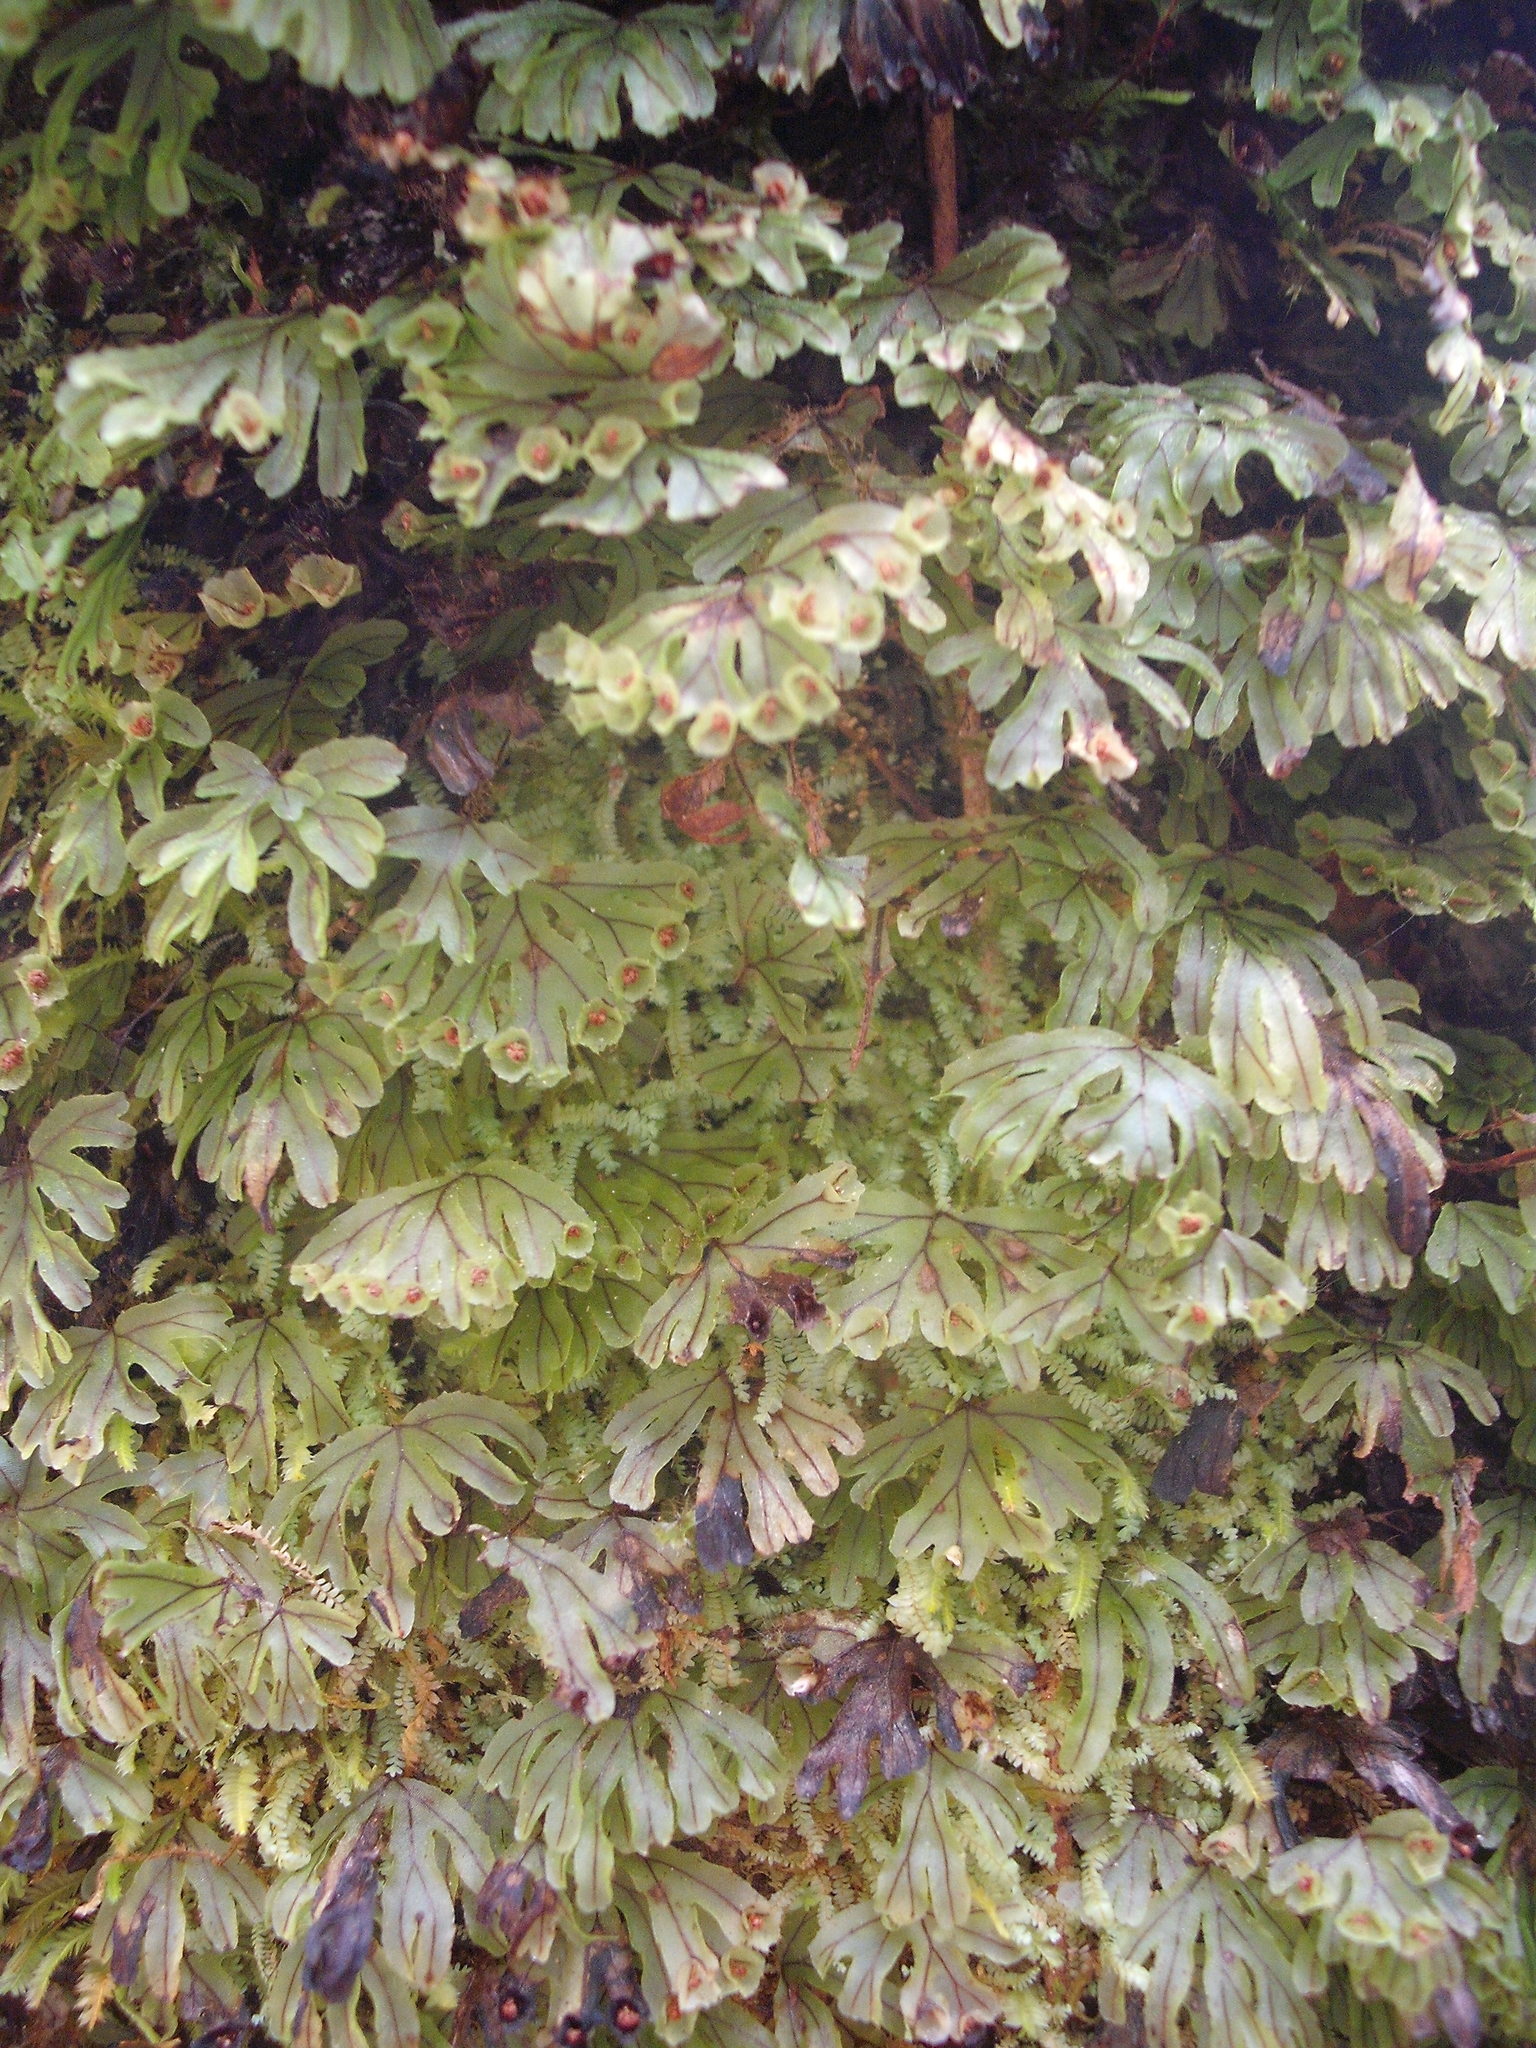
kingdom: Plantae
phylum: Tracheophyta
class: Polypodiopsida
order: Hymenophyllales
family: Hymenophyllaceae
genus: Hymenophyllum
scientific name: Hymenophyllum lyallii
